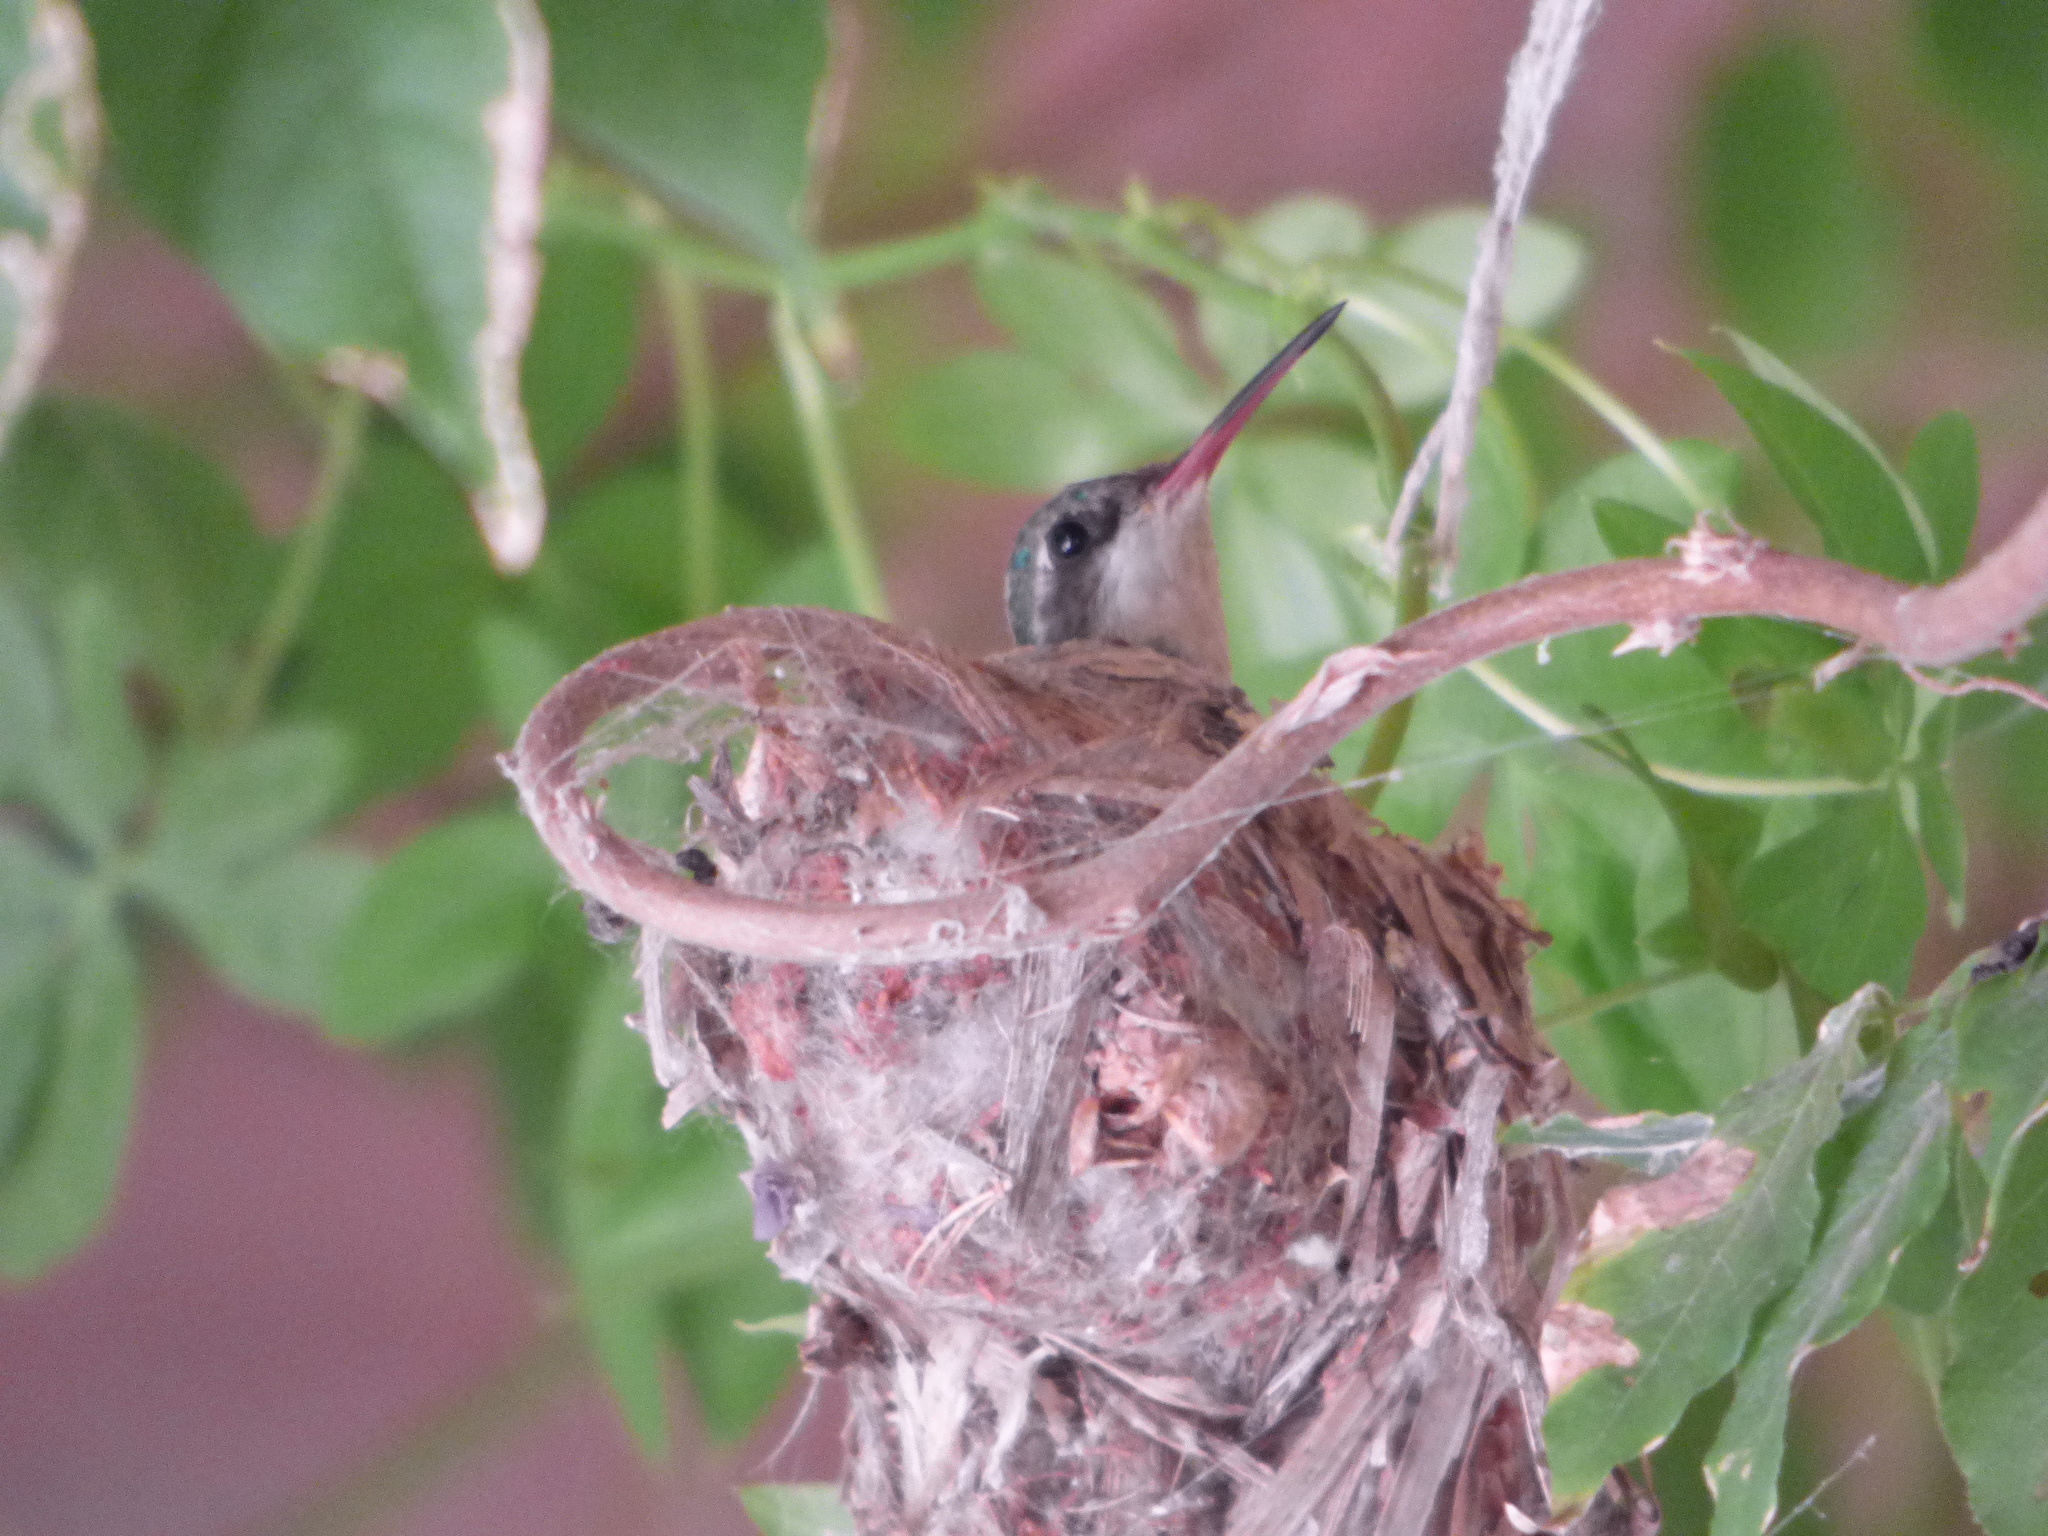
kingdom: Animalia
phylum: Chordata
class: Aves
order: Apodiformes
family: Trochilidae
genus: Chlorostilbon
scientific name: Chlorostilbon lucidus
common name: Glittering-bellied emerald
